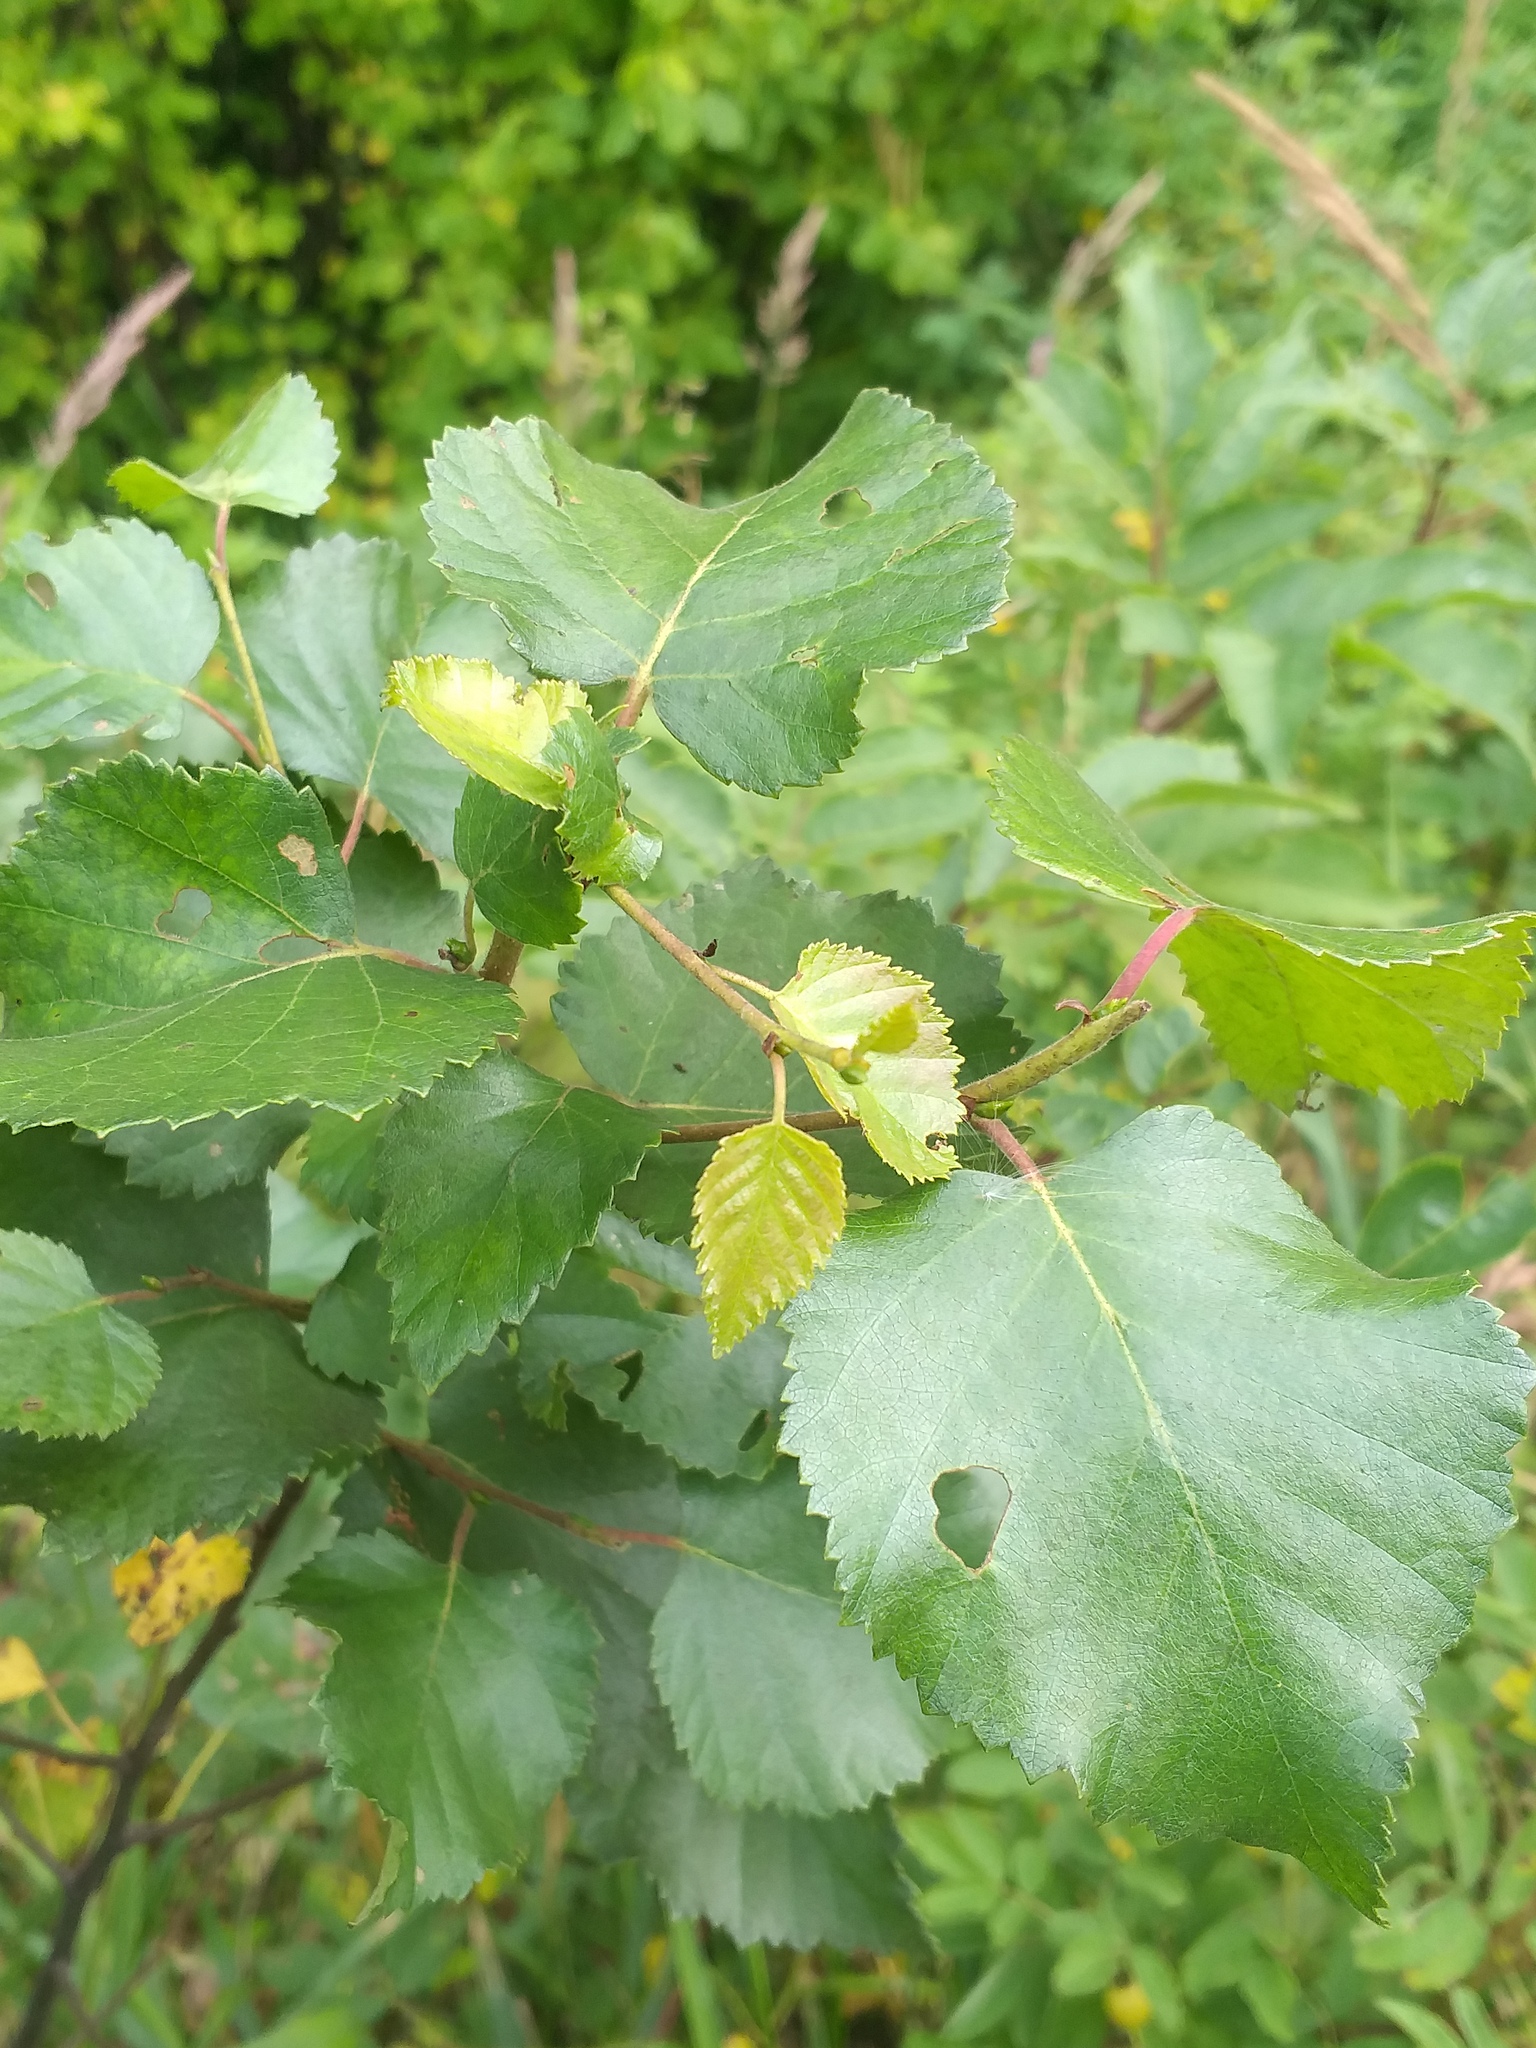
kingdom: Plantae
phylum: Tracheophyta
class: Magnoliopsida
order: Fagales
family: Betulaceae
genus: Betula
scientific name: Betula pubescens
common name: Downy birch
